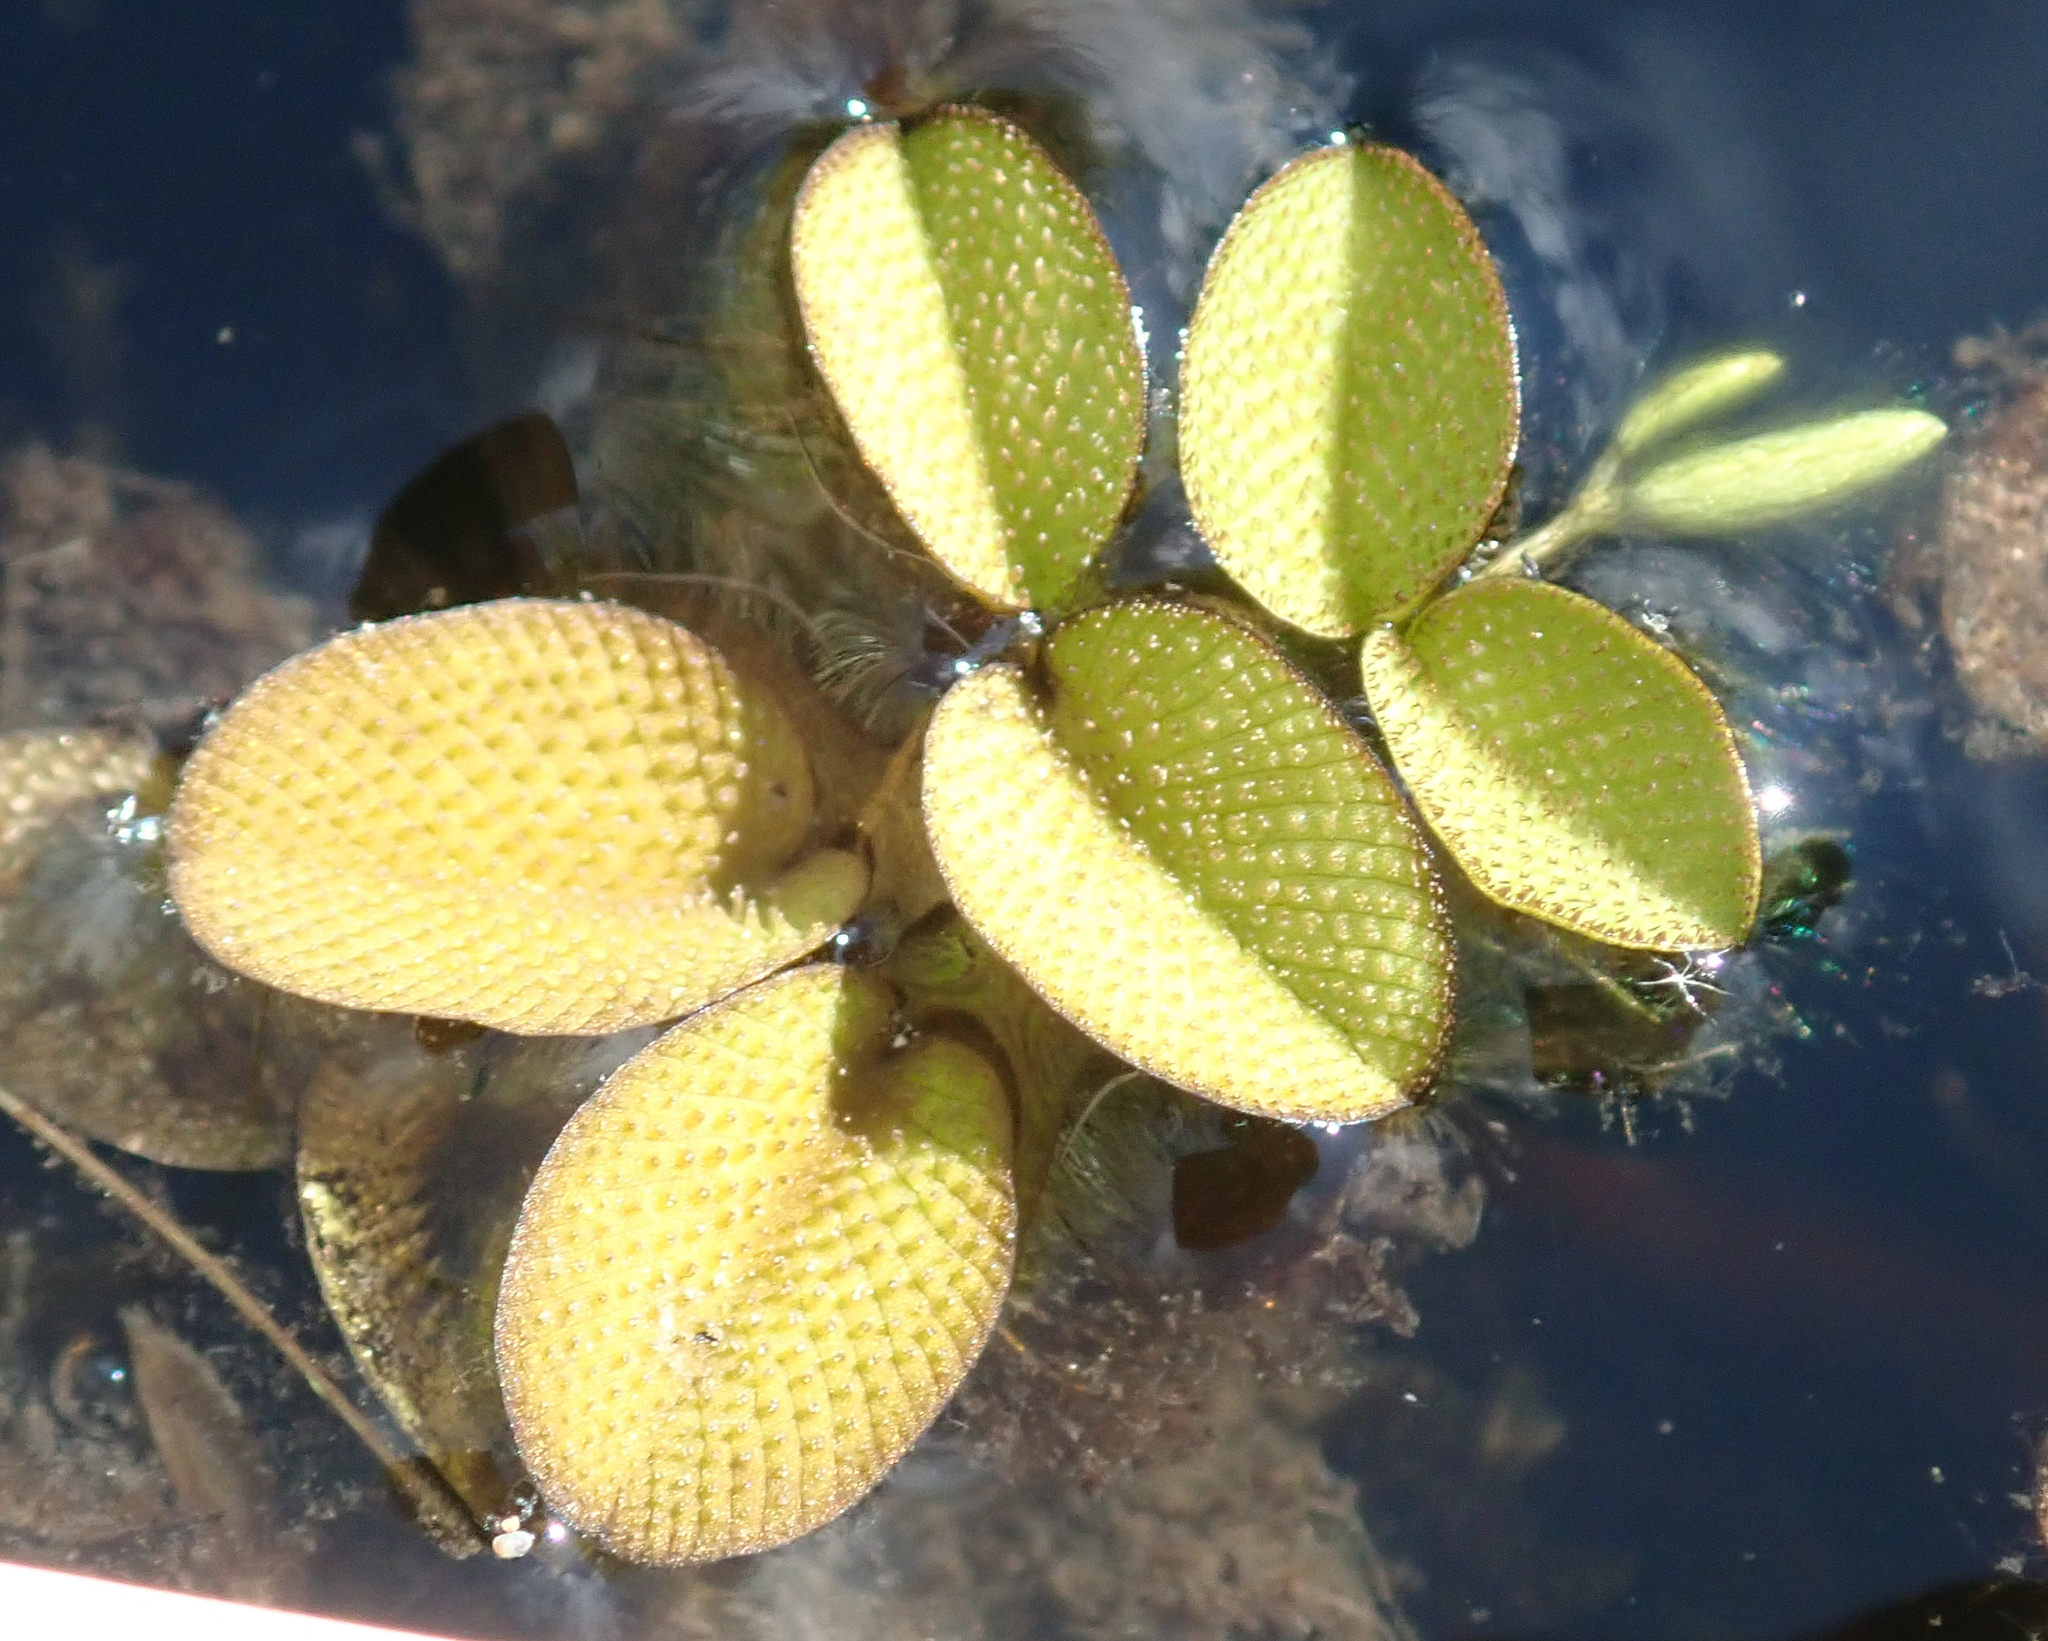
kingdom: Plantae
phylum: Tracheophyta
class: Polypodiopsida
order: Salviniales
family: Salviniaceae
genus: Salvinia
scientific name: Salvinia molesta
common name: Kariba weed
